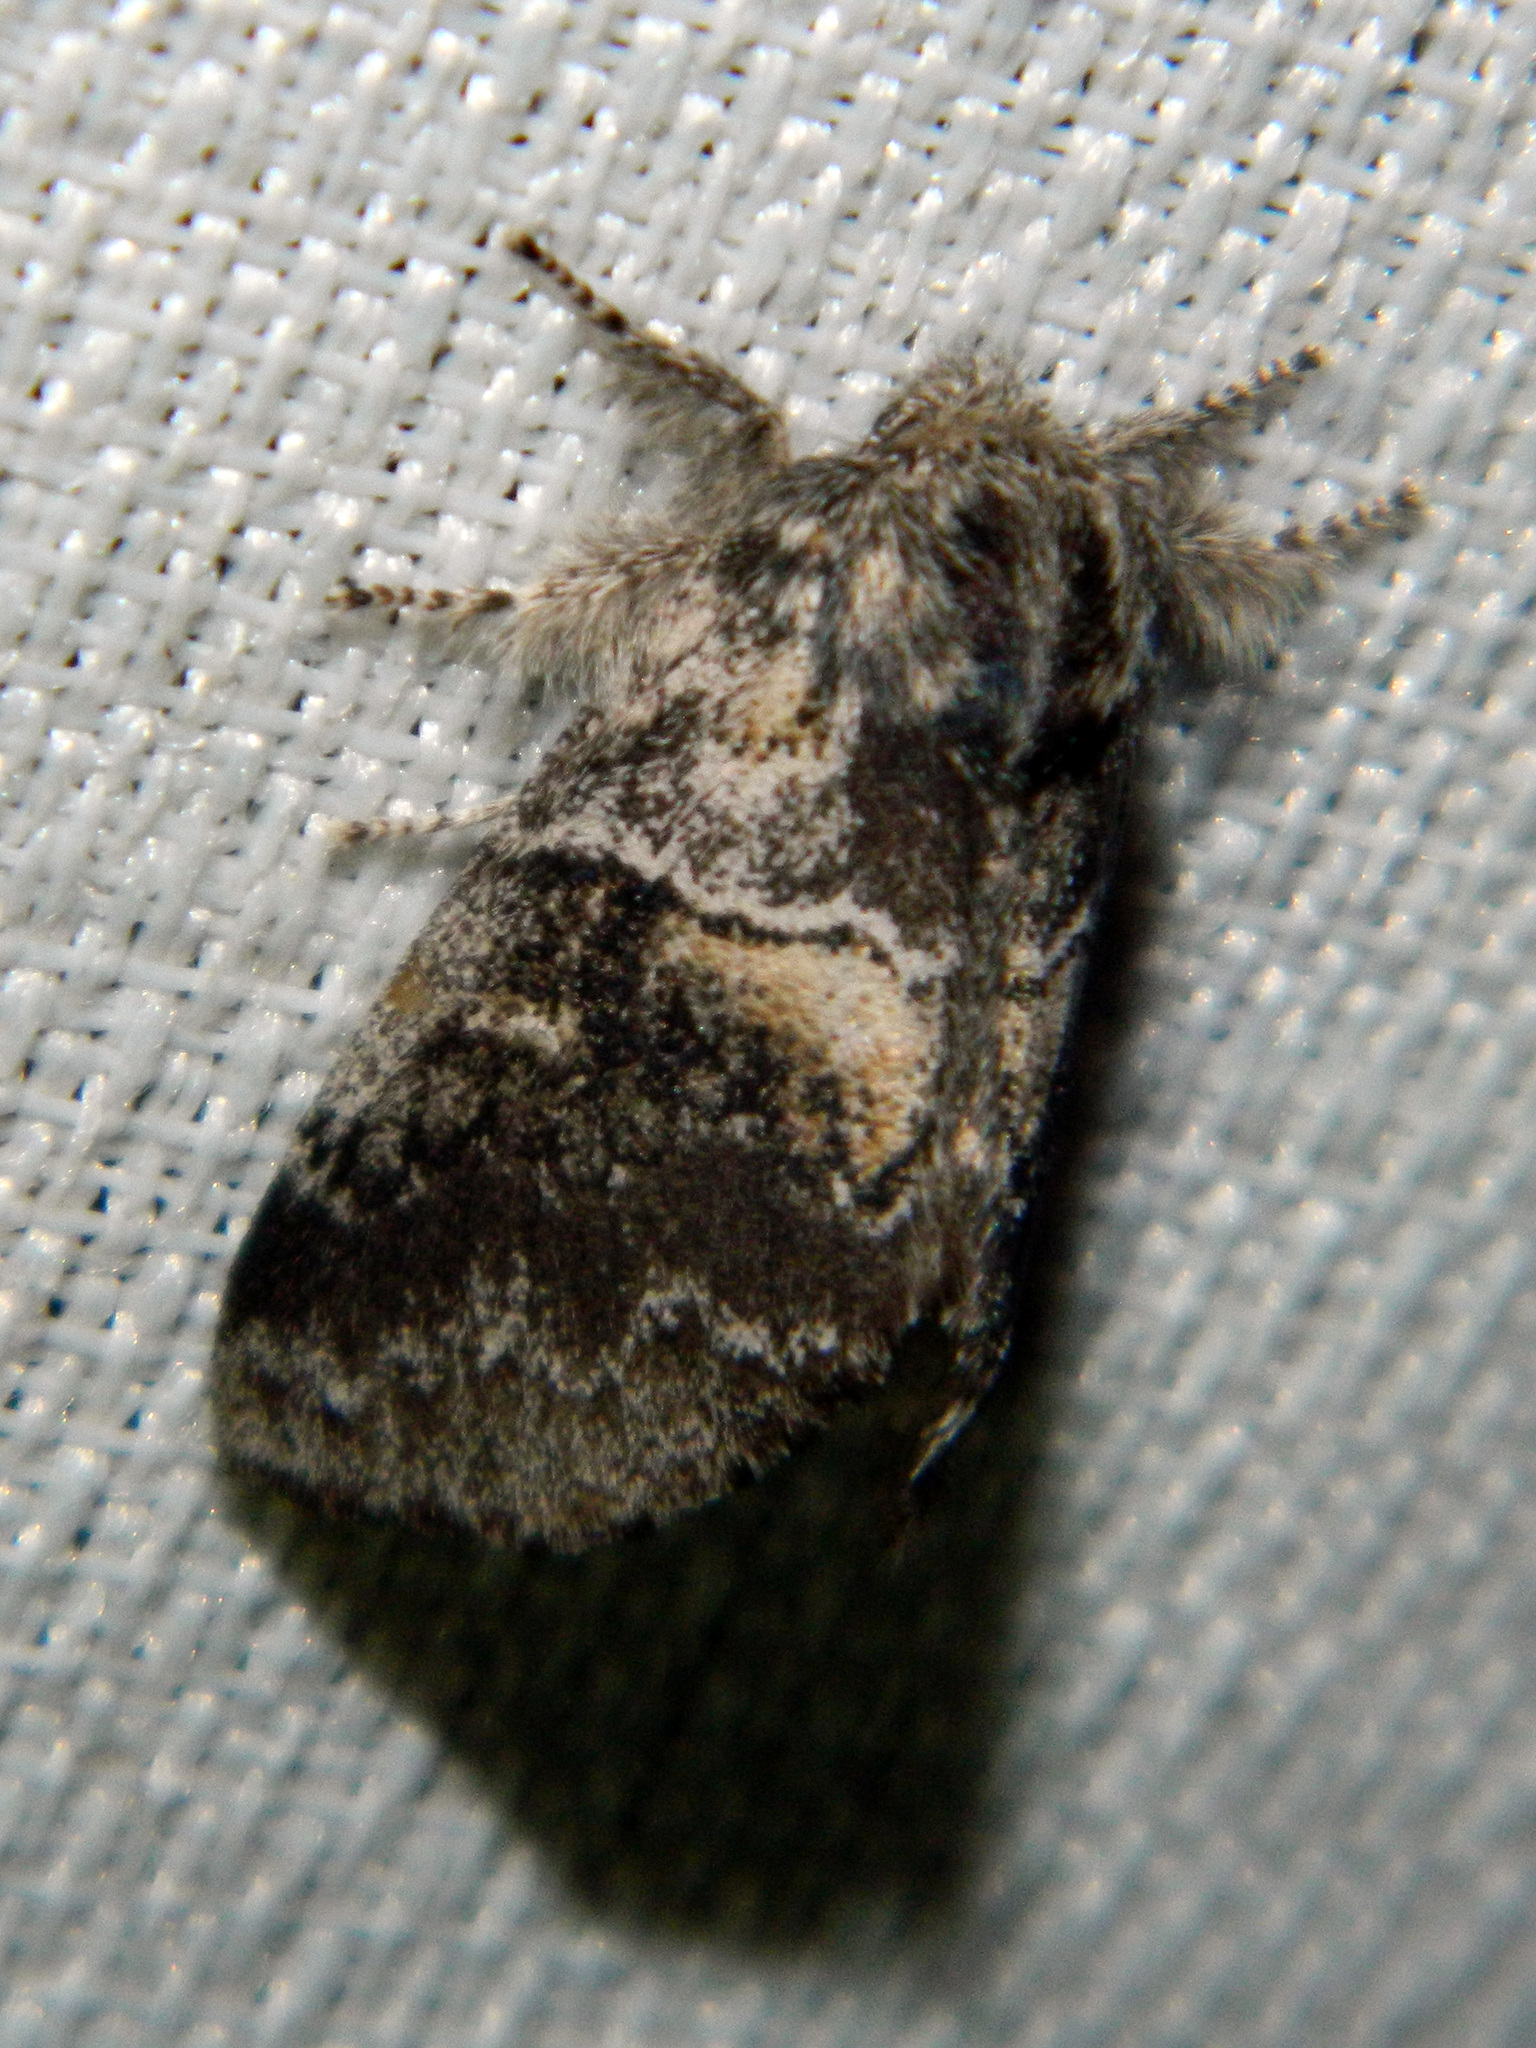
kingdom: Animalia
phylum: Arthropoda
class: Insecta
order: Lepidoptera
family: Notodontidae
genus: Gluphisia
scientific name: Gluphisia septentrionis
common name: Common gluphisia
